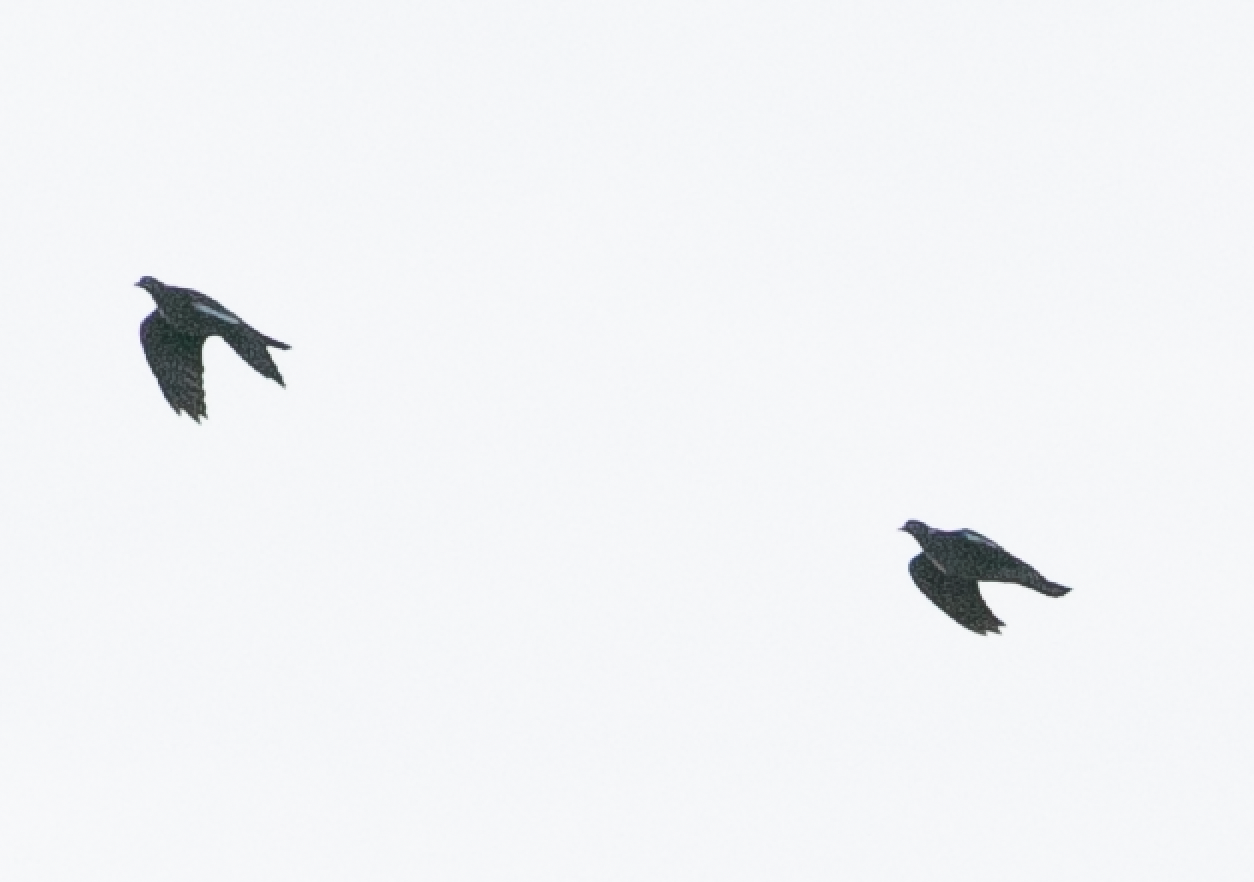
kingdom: Animalia
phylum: Chordata
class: Aves
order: Columbiformes
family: Columbidae
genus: Columba
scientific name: Columba palumbus
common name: Common wood pigeon
